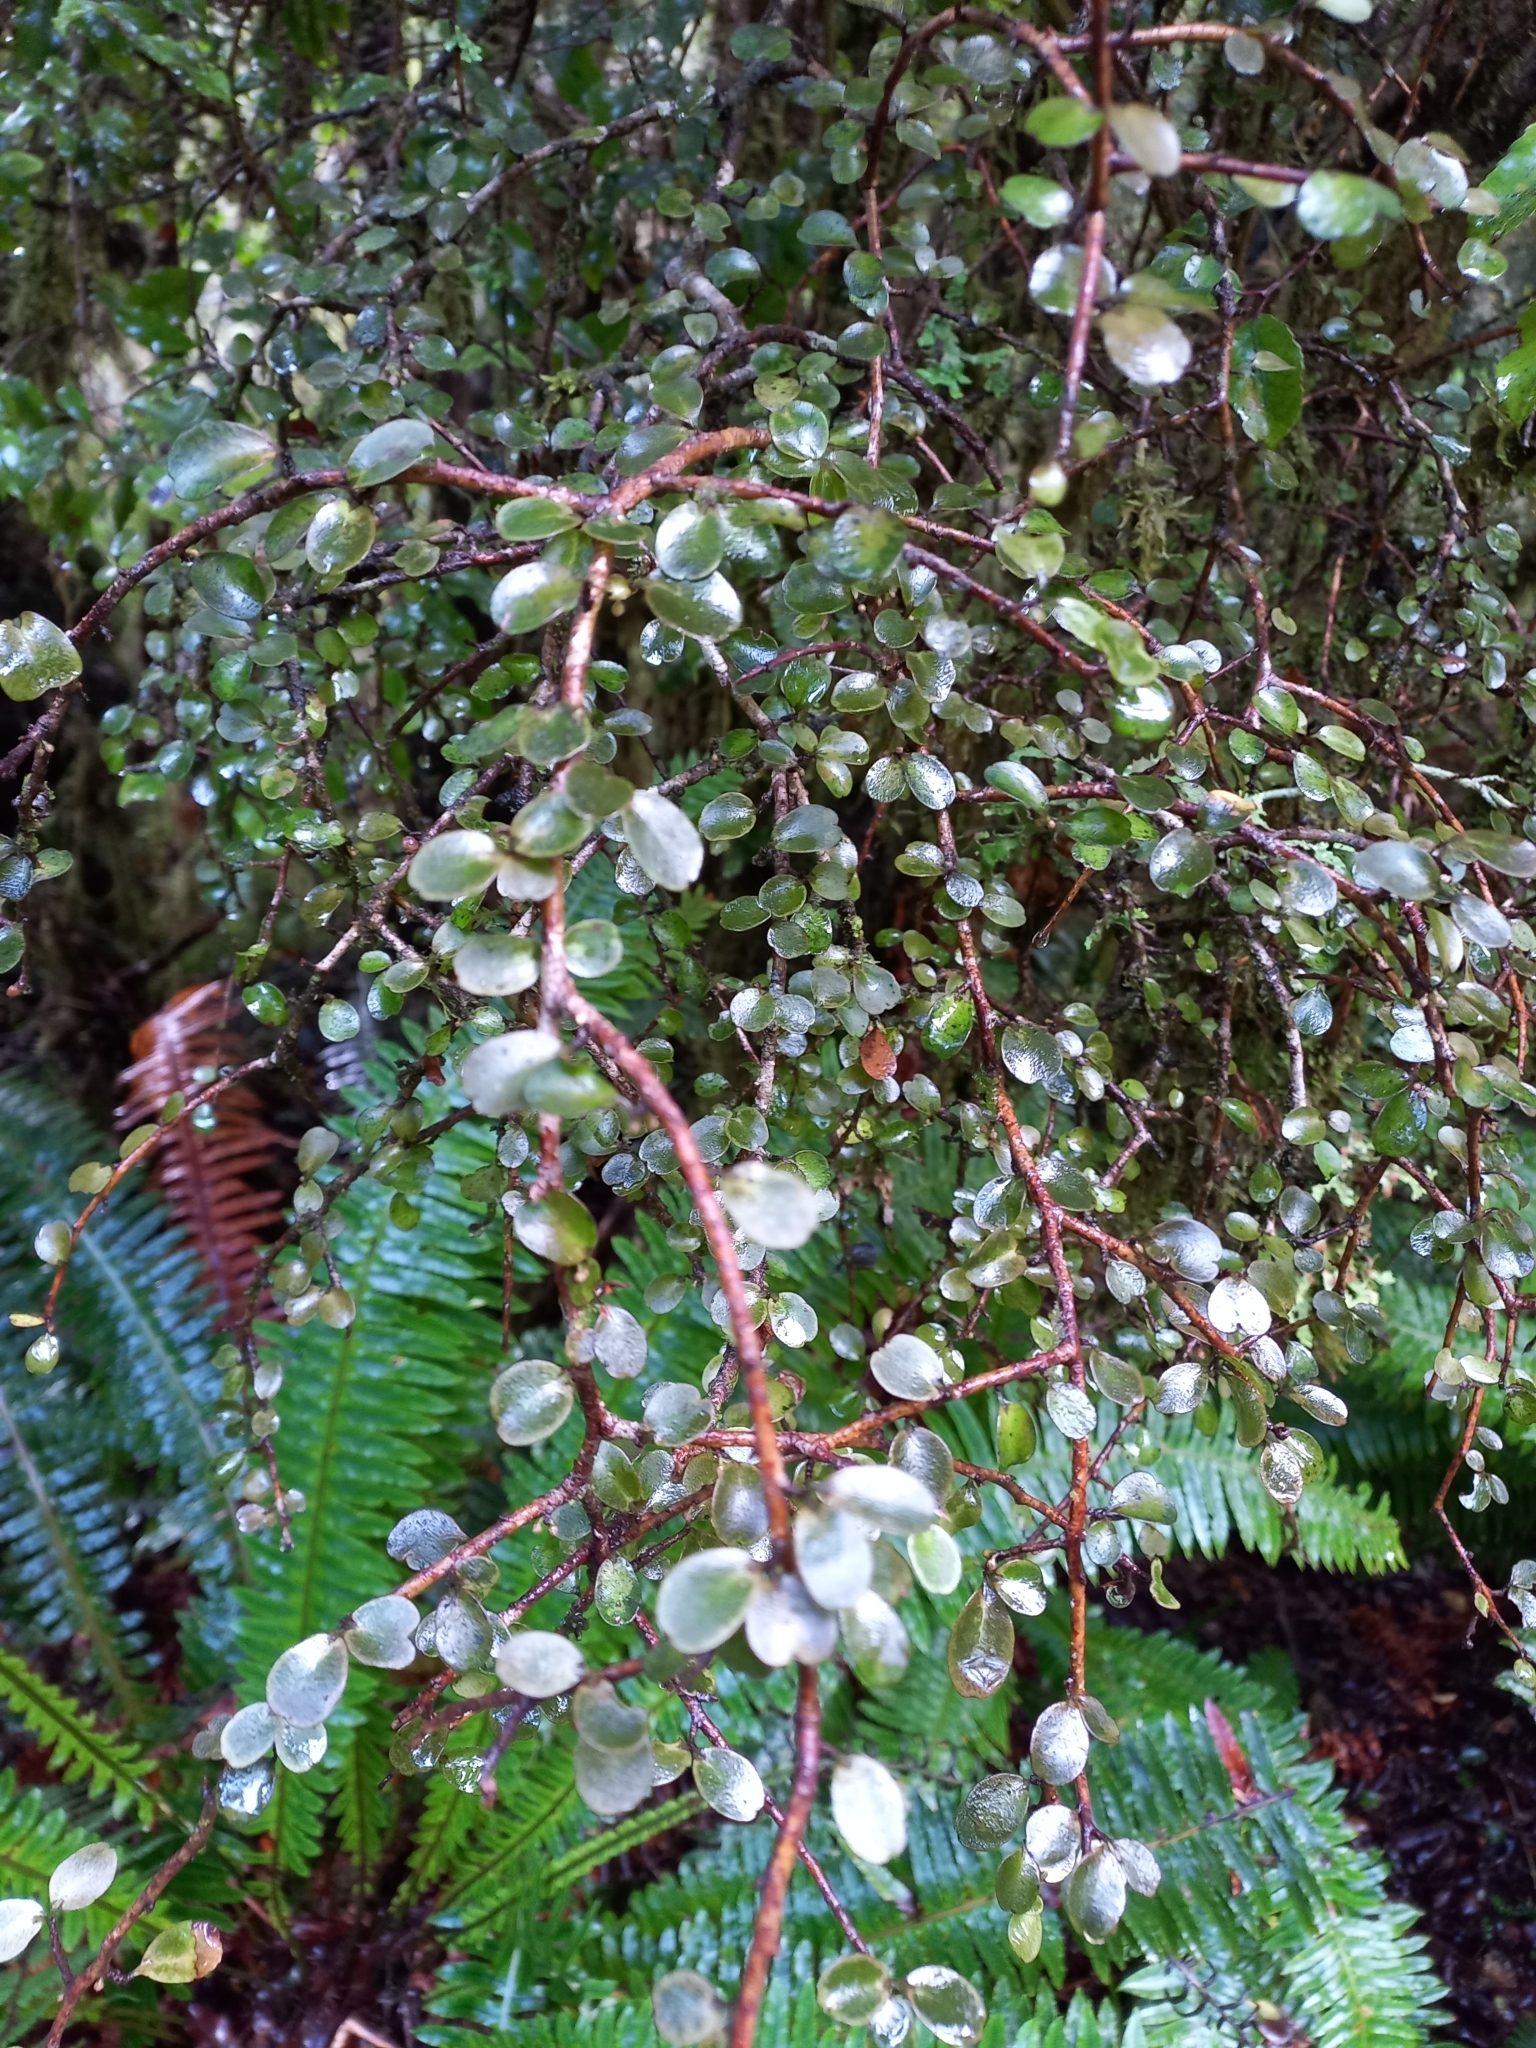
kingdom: Plantae
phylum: Tracheophyta
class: Magnoliopsida
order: Ericales
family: Primulaceae
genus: Myrsine
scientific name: Myrsine divaricata
